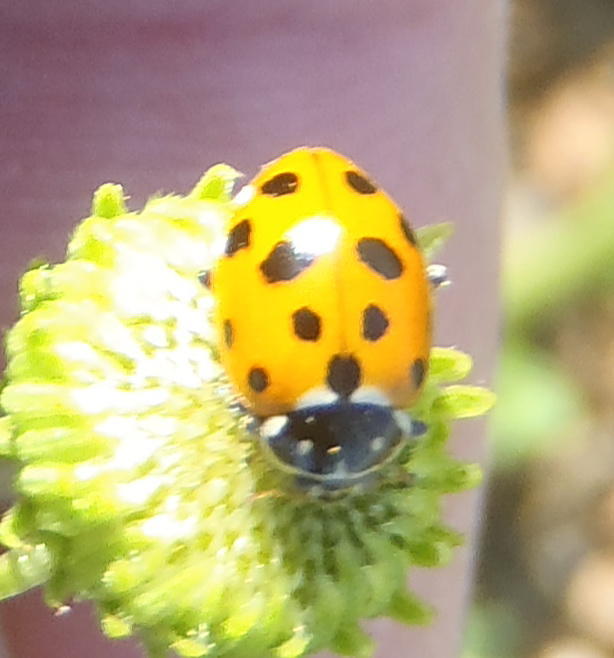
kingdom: Animalia
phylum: Arthropoda
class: Insecta
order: Coleoptera
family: Coccinellidae
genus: Hippodamia
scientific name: Hippodamia variegata
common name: Ladybird beetle
